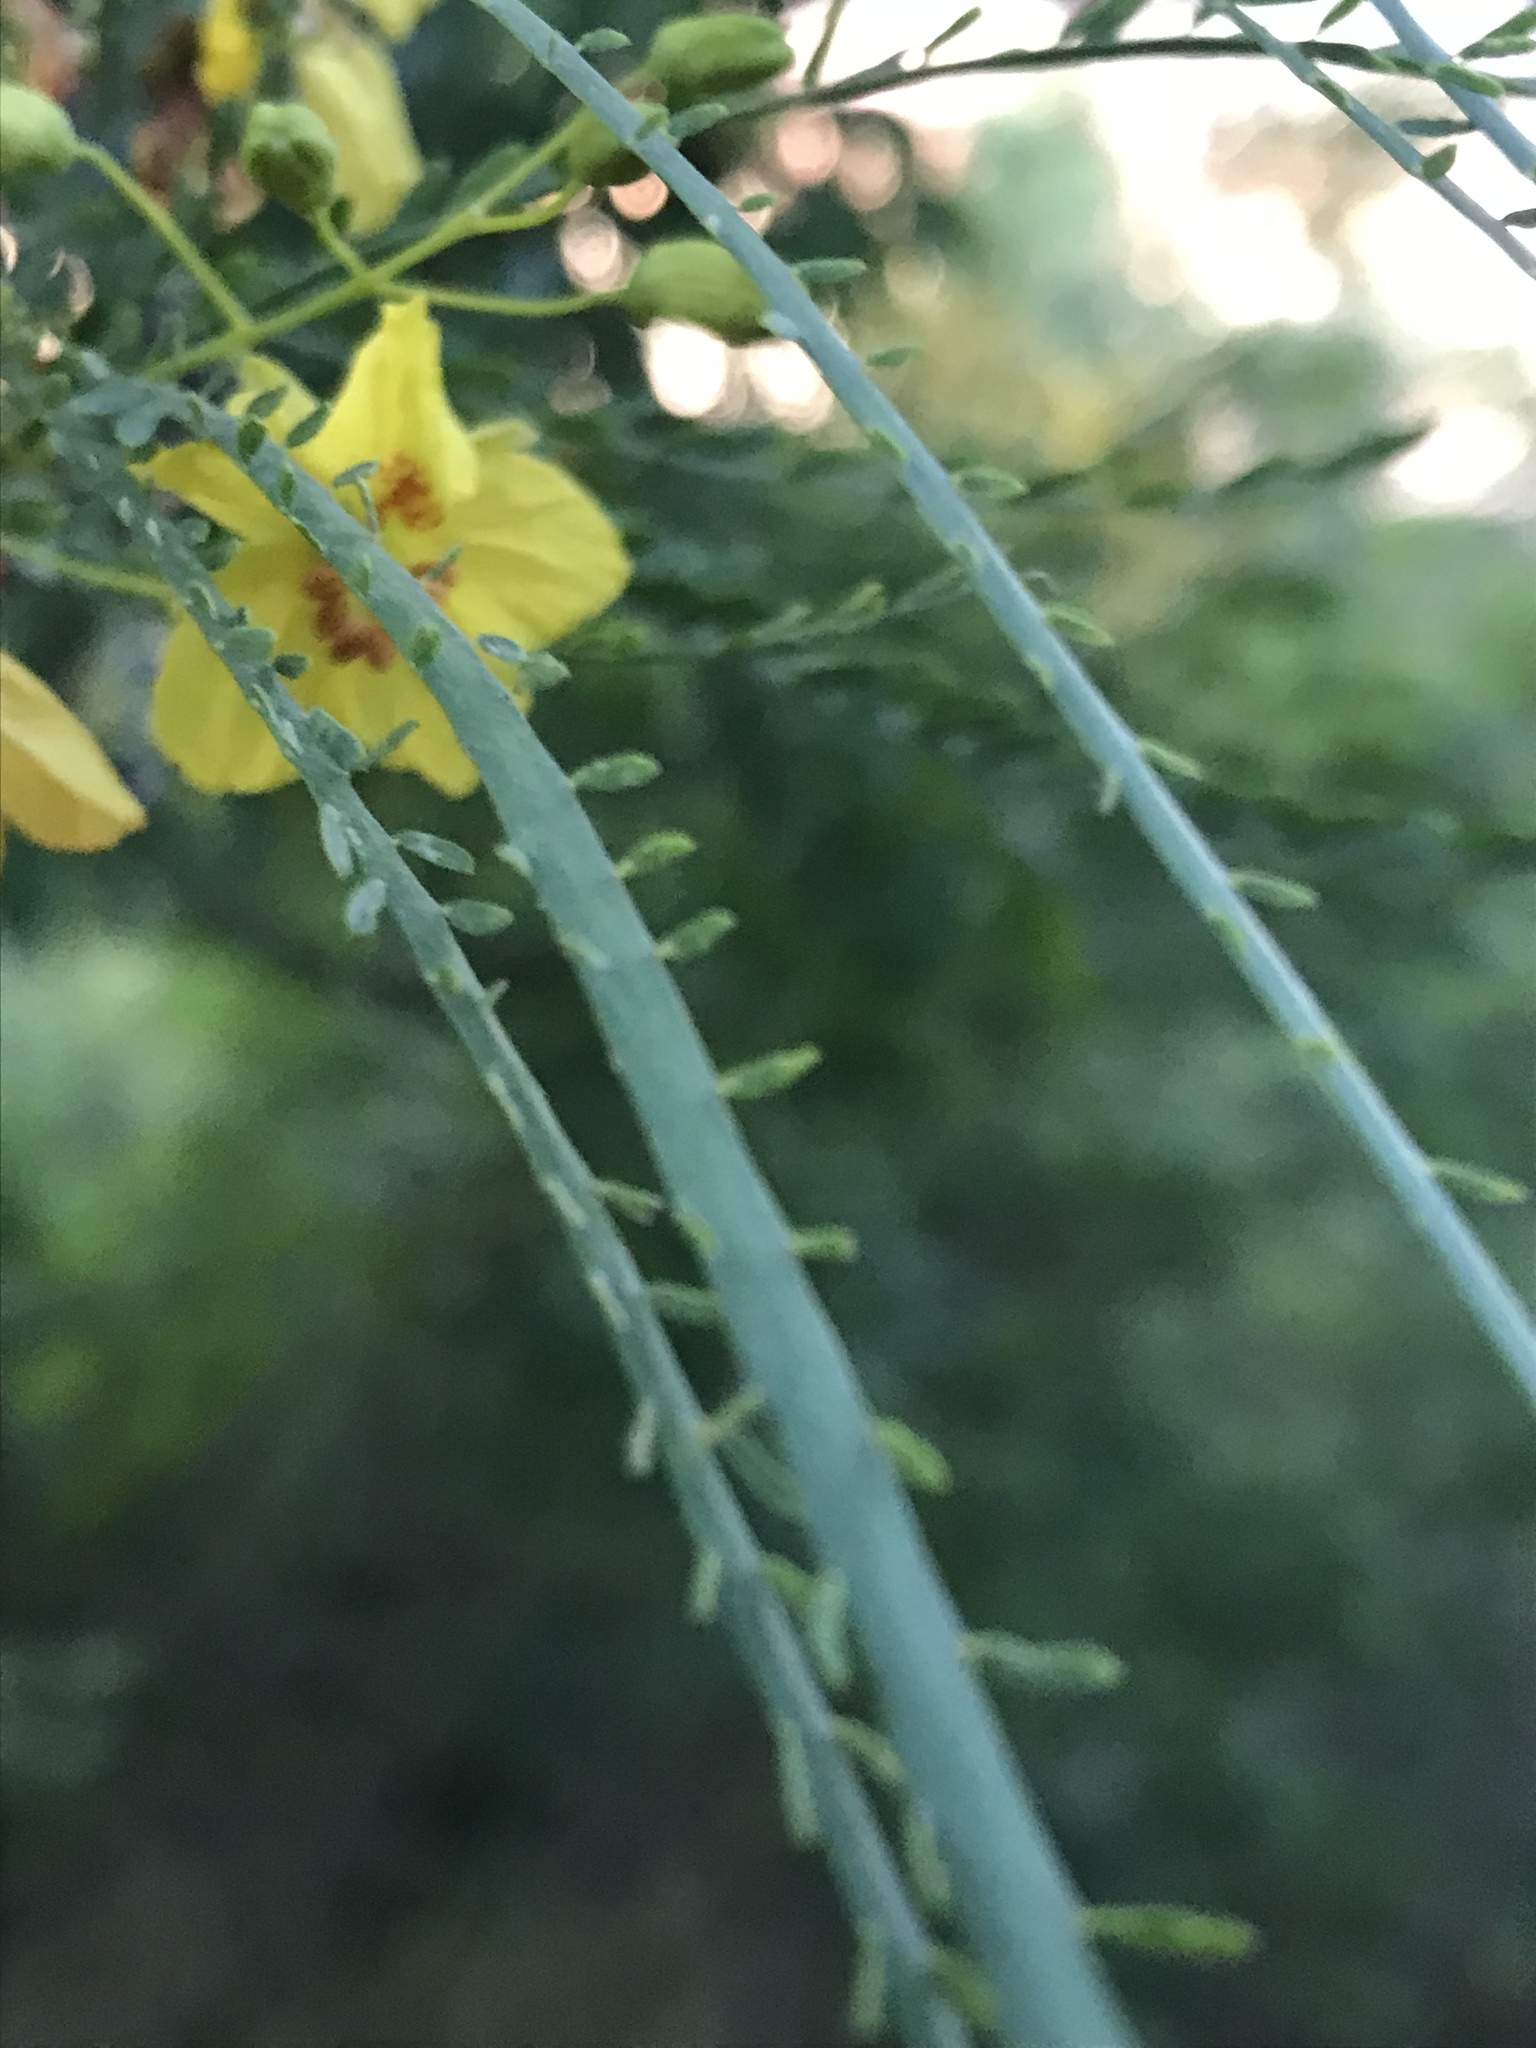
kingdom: Plantae
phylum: Tracheophyta
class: Magnoliopsida
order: Fabales
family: Fabaceae
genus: Parkinsonia
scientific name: Parkinsonia aculeata
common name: Jerusalem thorn
